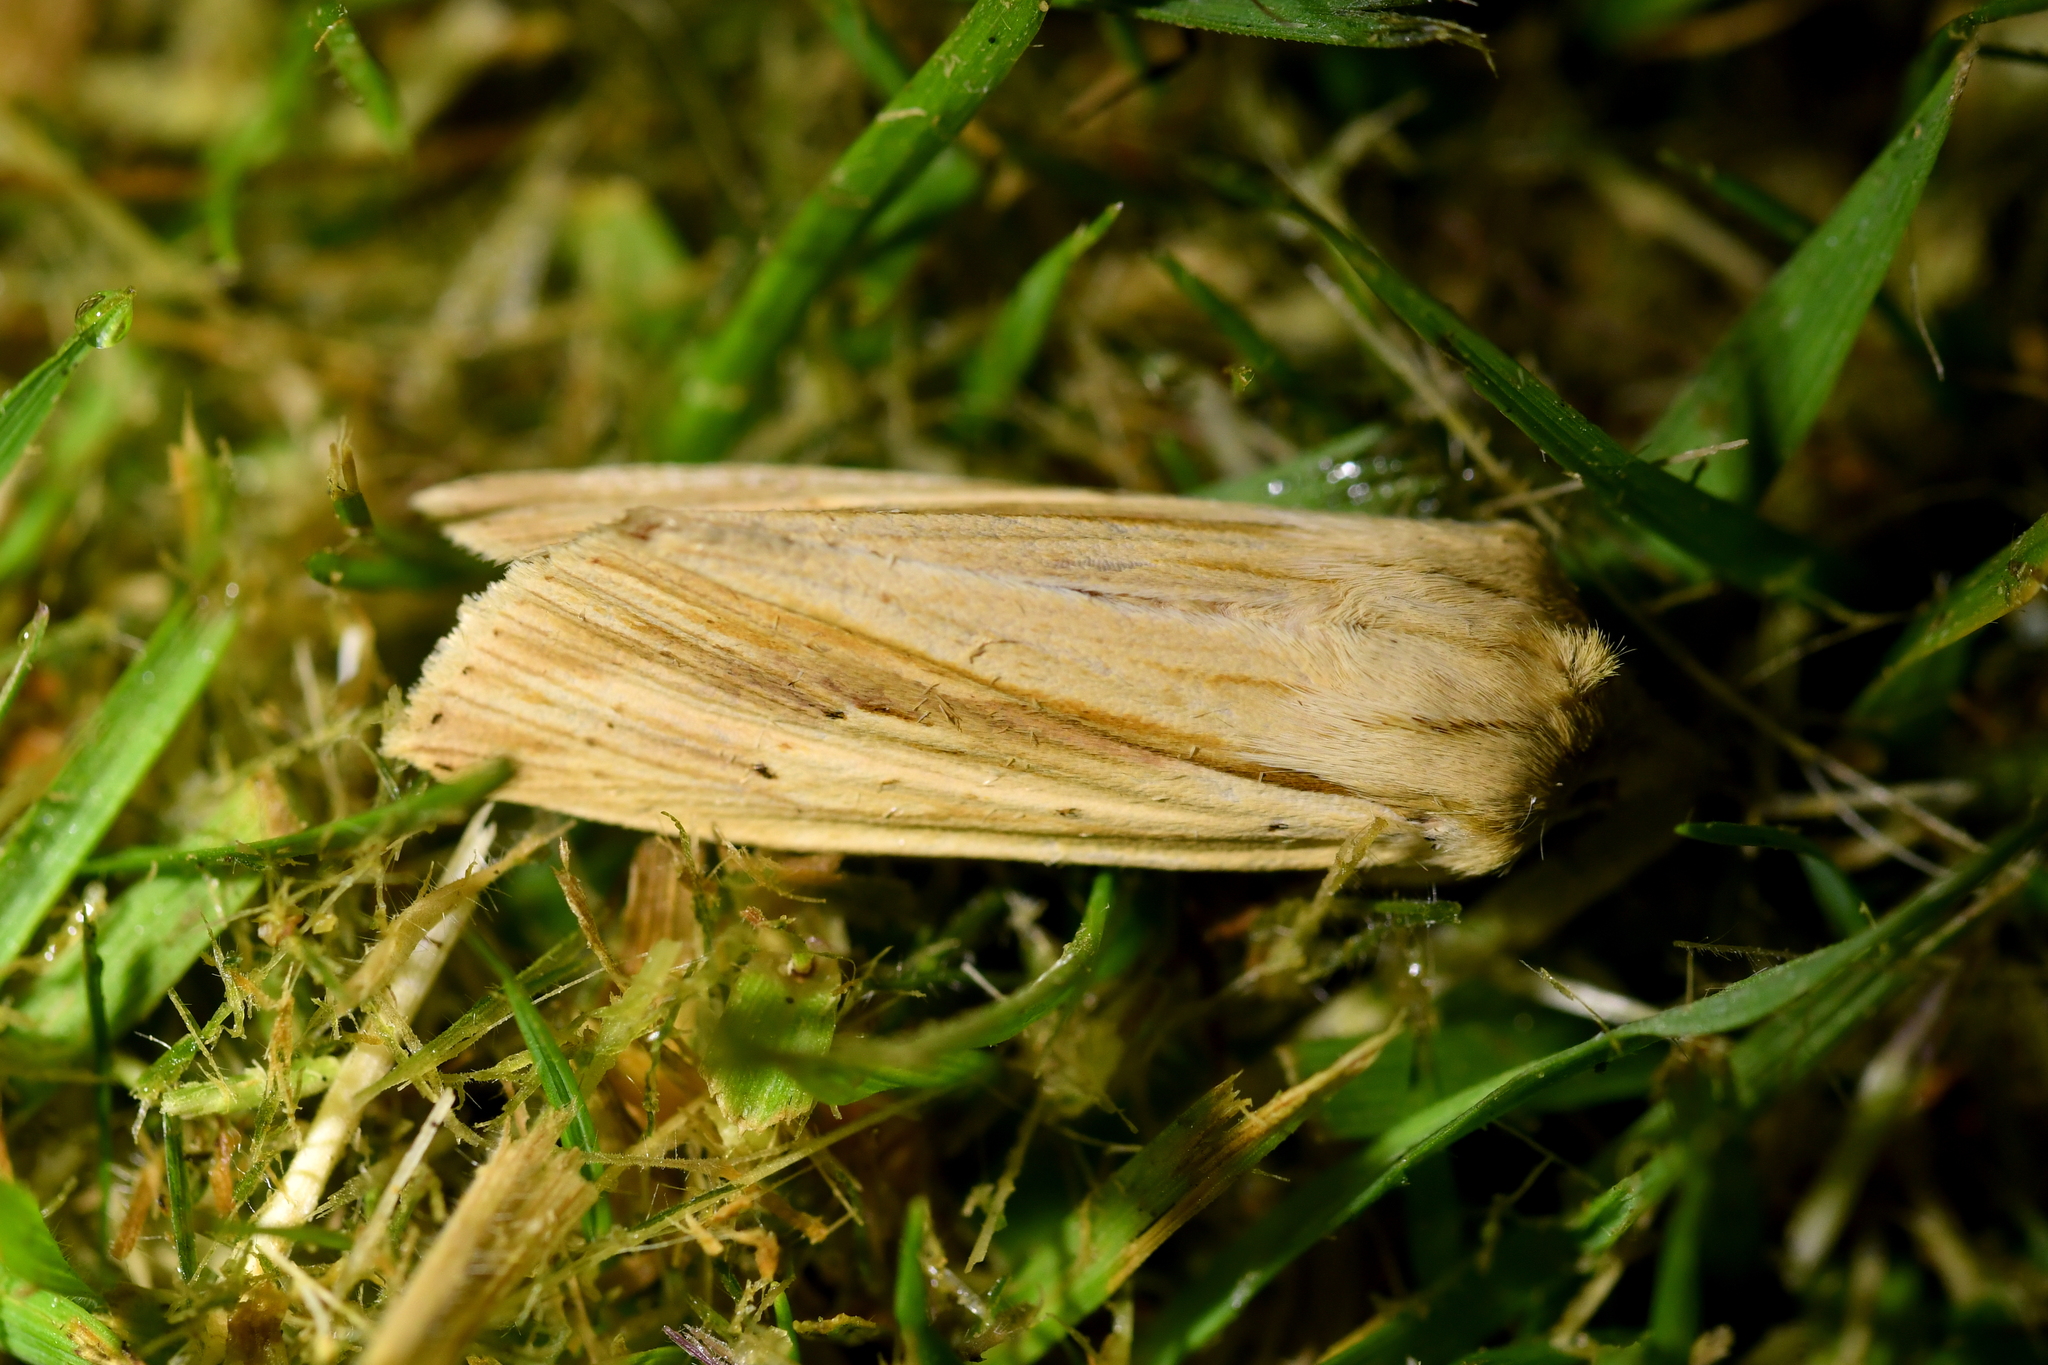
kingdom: Animalia
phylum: Arthropoda
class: Insecta
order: Lepidoptera
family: Noctuidae
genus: Ichneutica
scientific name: Ichneutica semivittata
